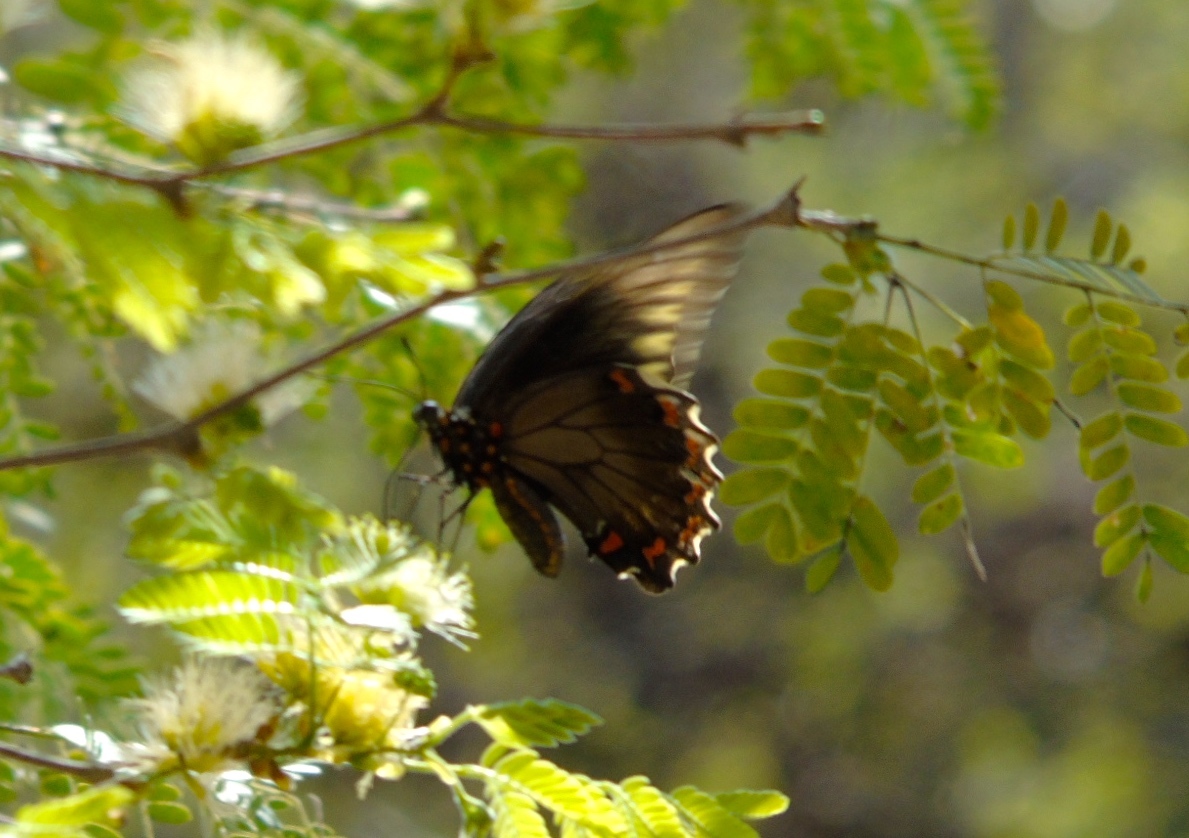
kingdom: Animalia
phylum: Arthropoda
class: Insecta
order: Lepidoptera
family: Papilionidae
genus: Battus
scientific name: Battus polydamas
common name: Polydamas swallowtail
